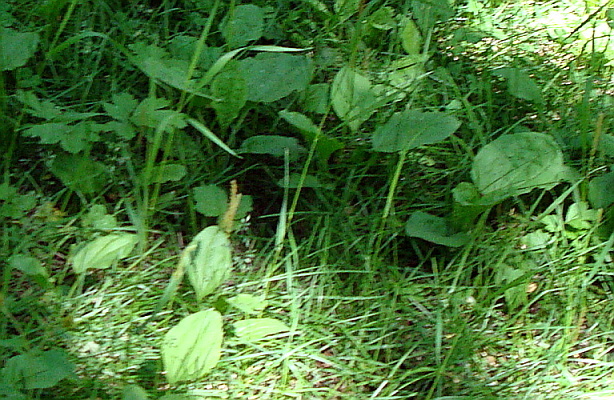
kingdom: Plantae
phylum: Tracheophyta
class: Magnoliopsida
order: Lamiales
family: Plantaginaceae
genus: Plantago
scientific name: Plantago major
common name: Common plantain
